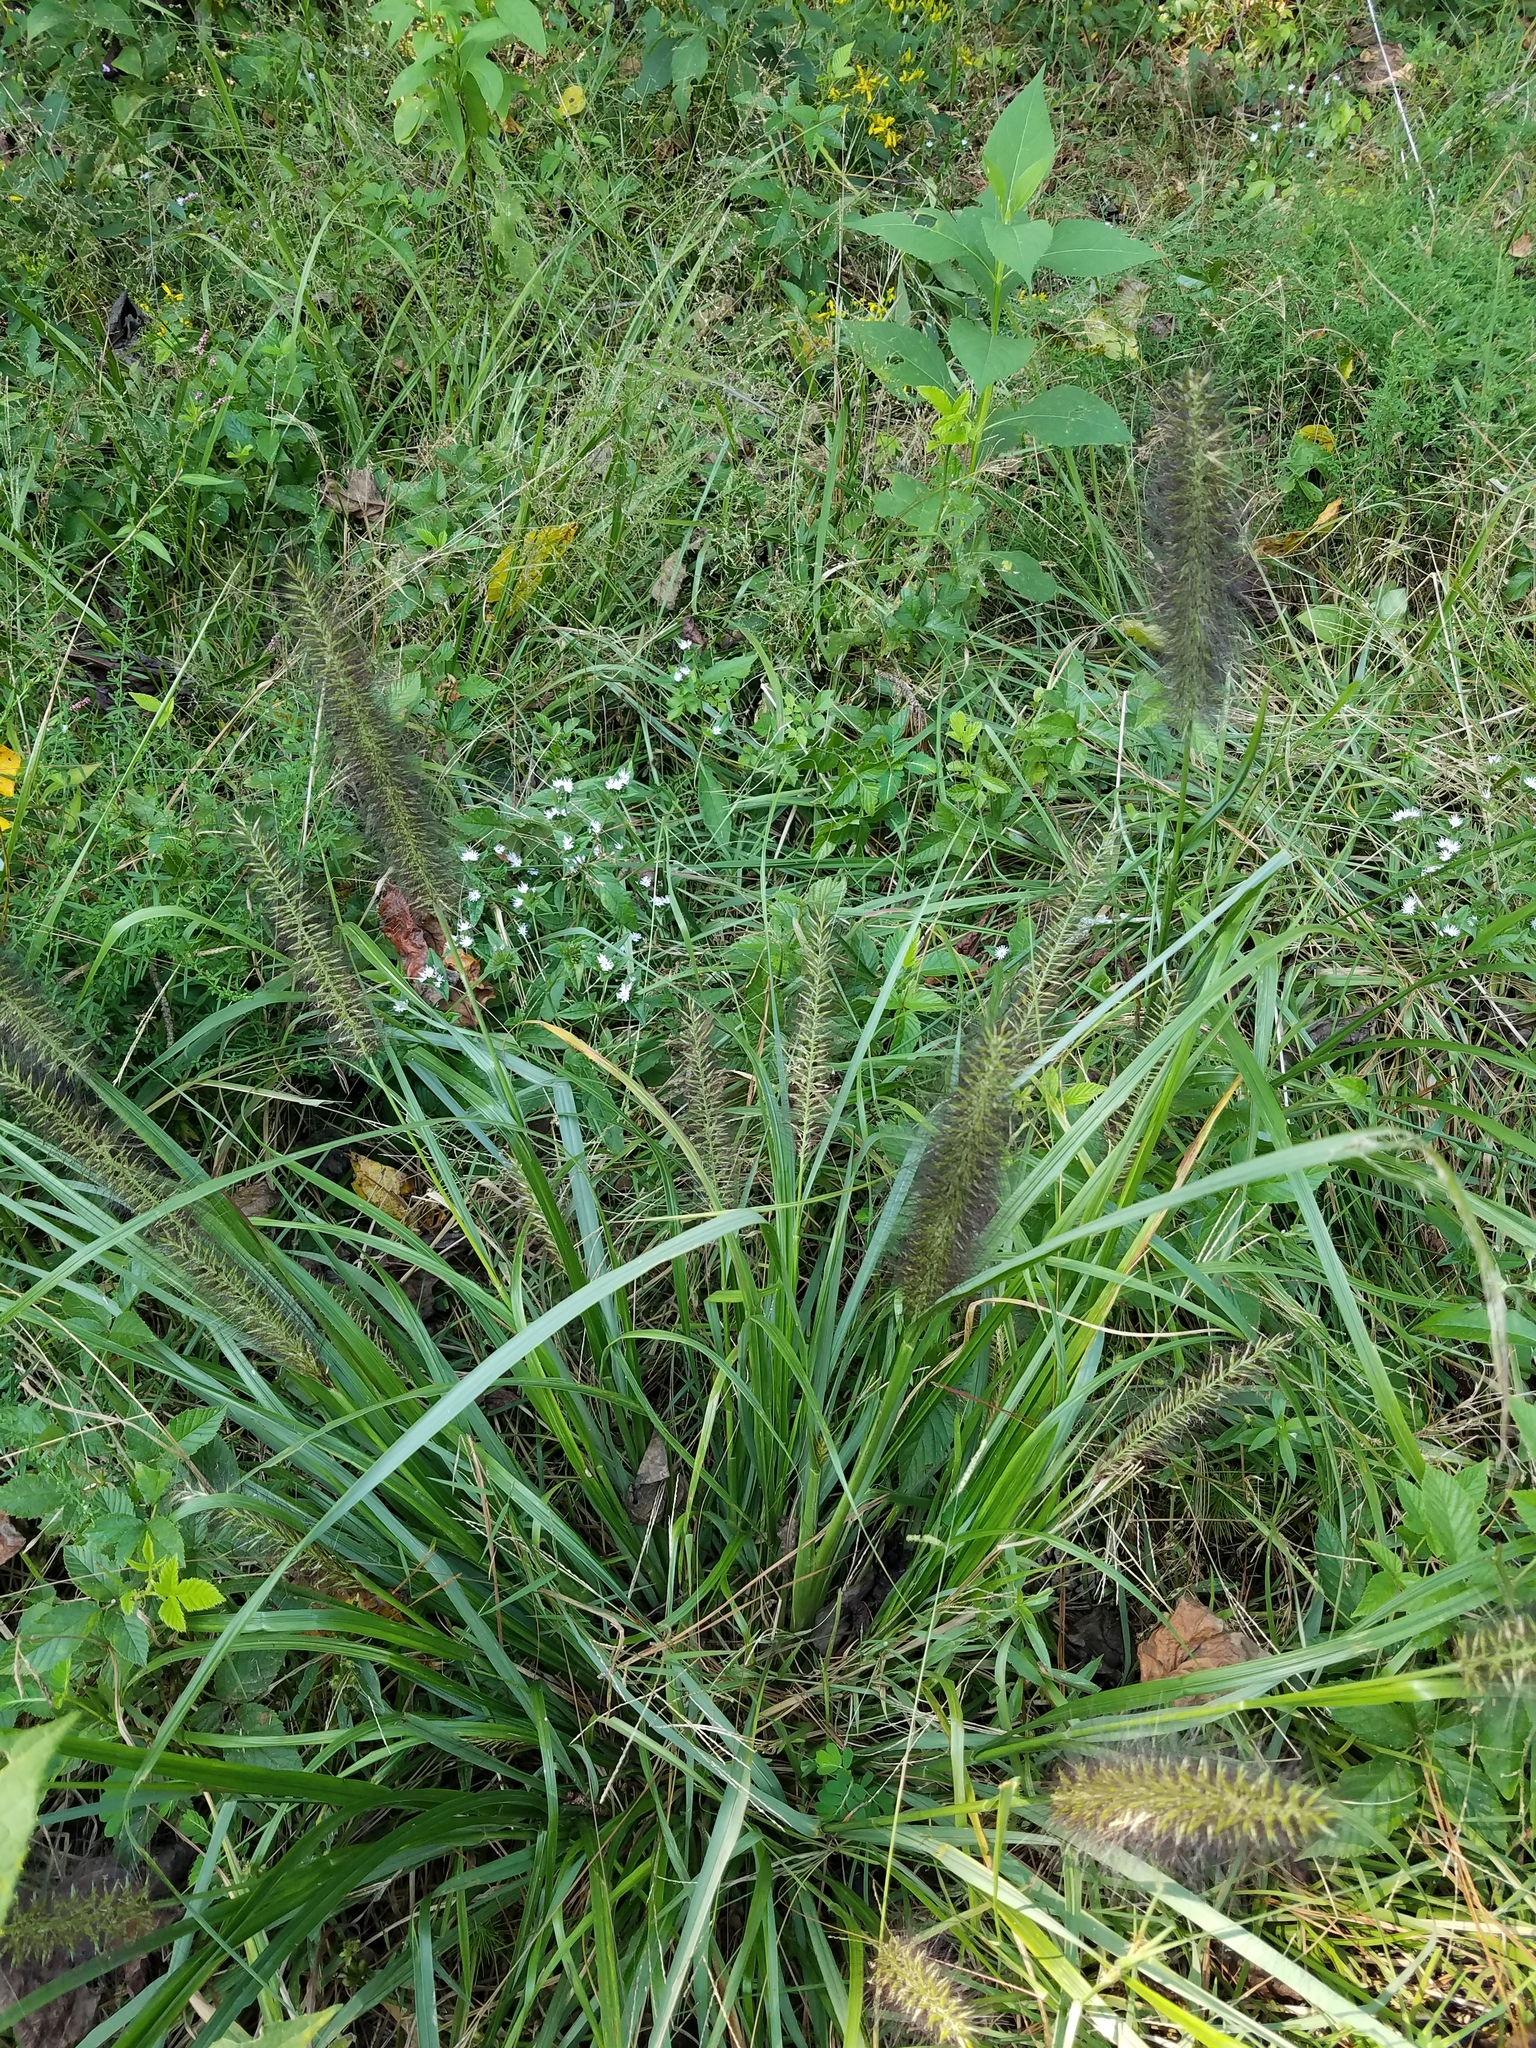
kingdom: Plantae
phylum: Tracheophyta
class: Liliopsida
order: Poales
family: Poaceae
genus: Cenchrus
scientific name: Cenchrus alopecuroides
